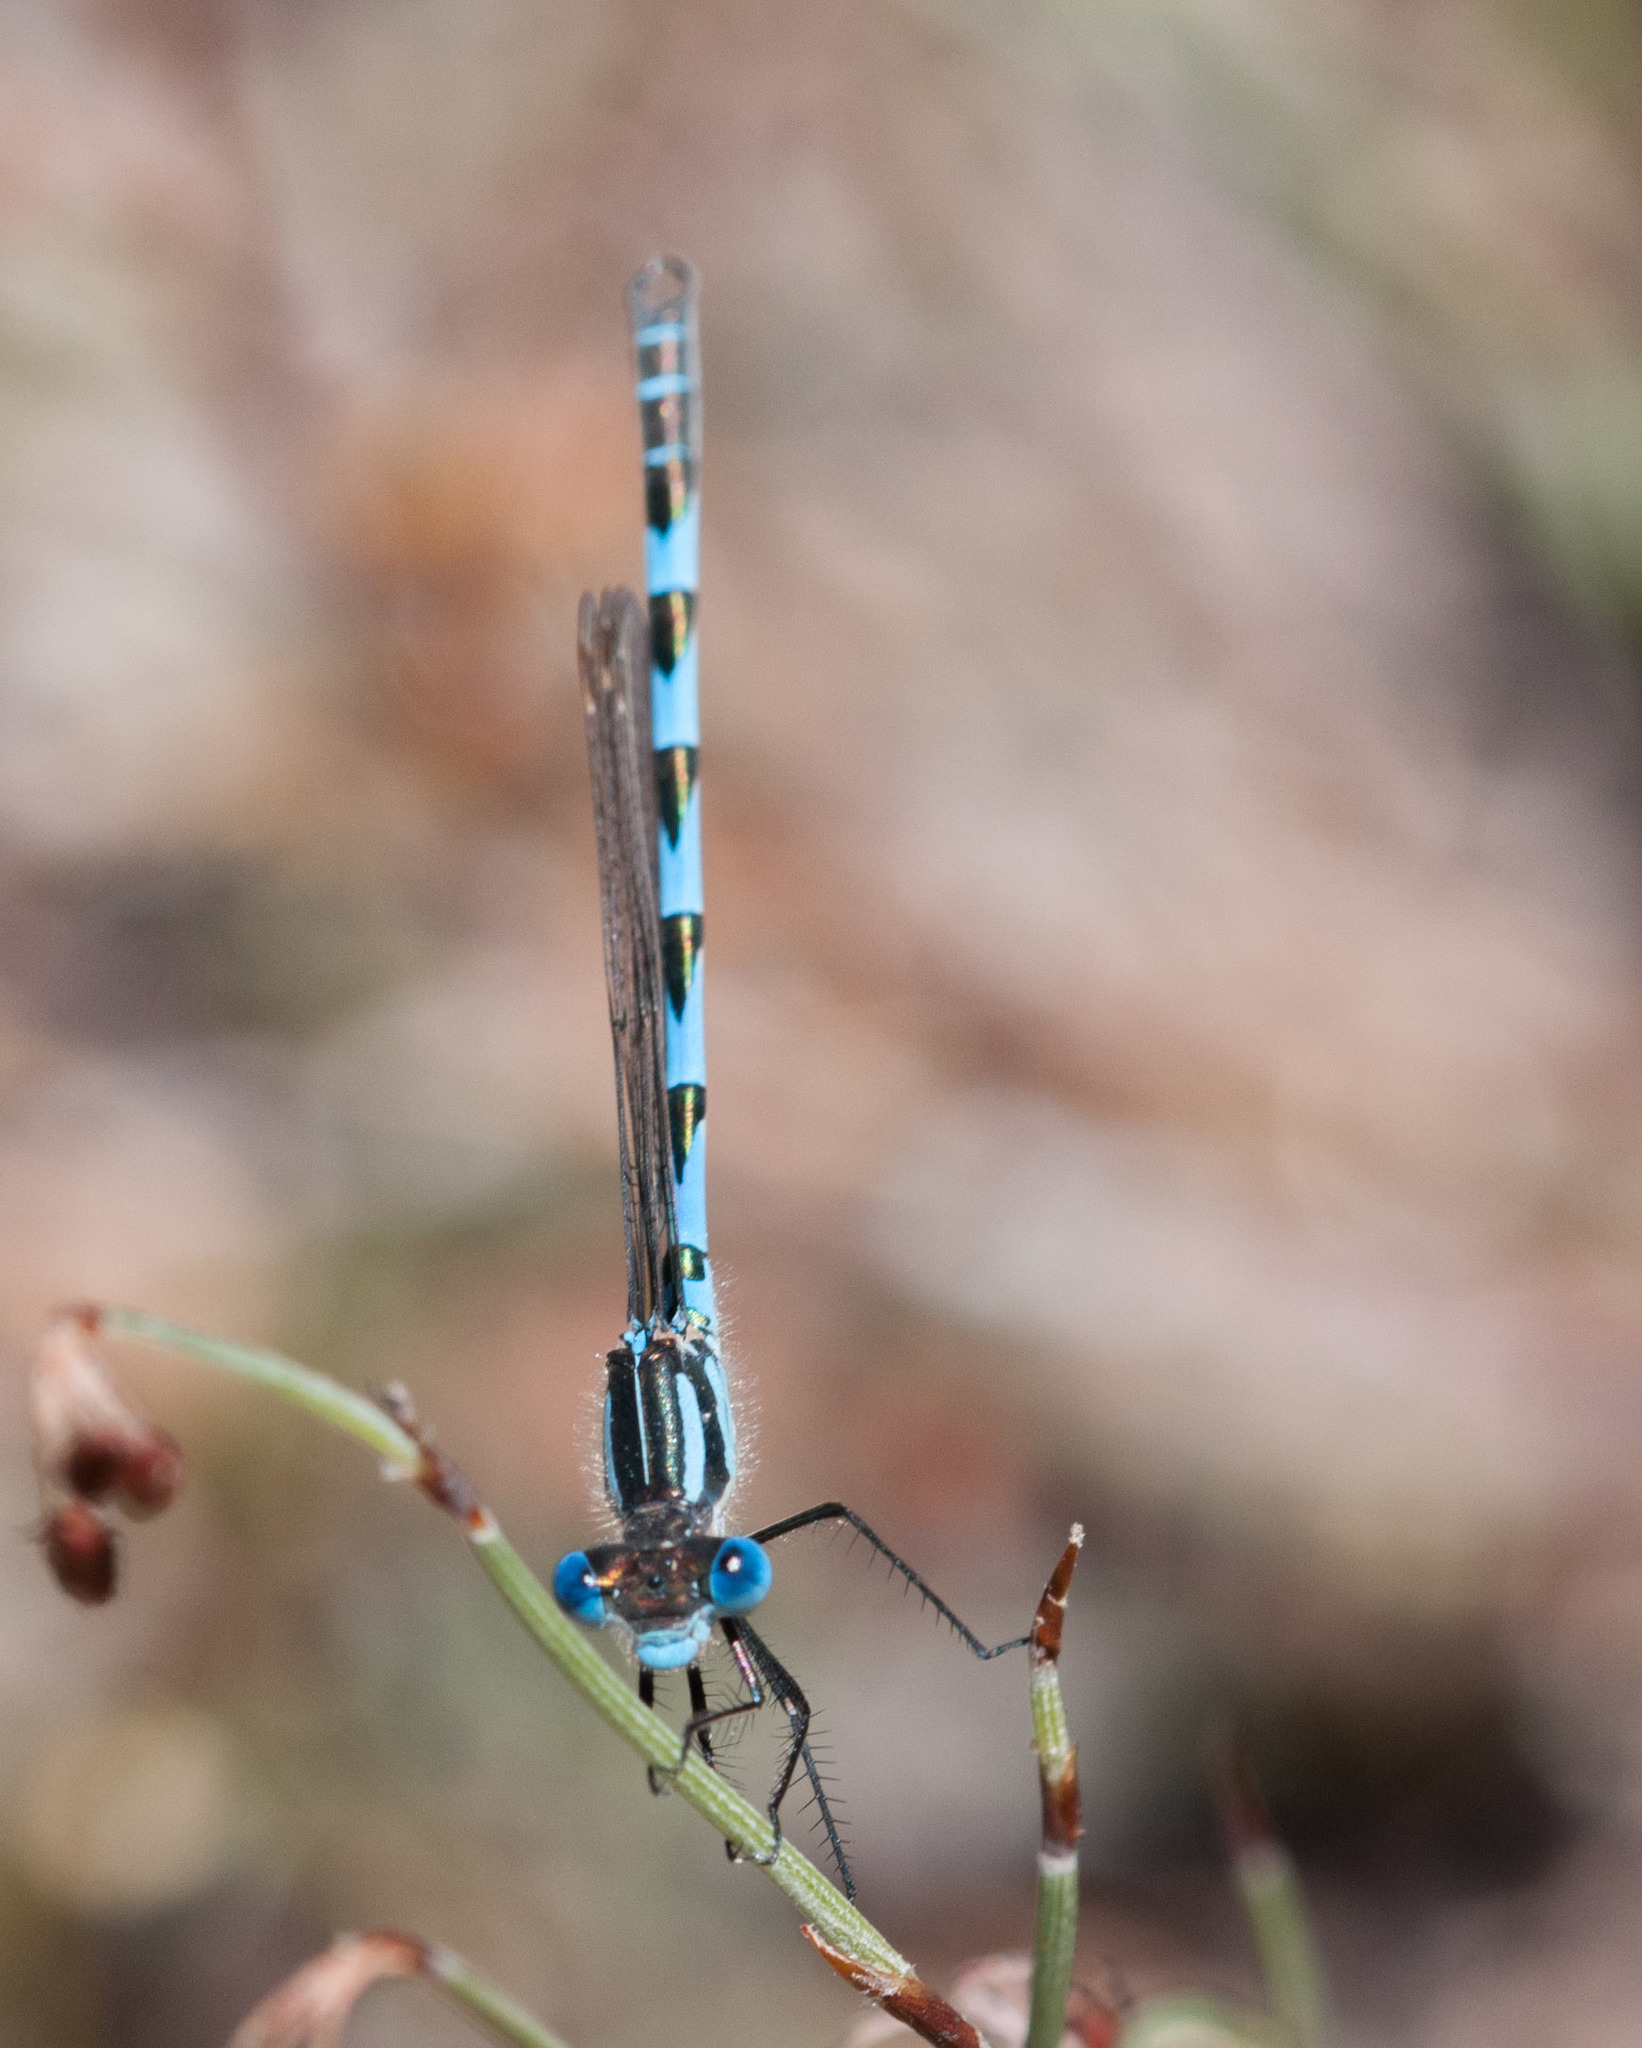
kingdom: Animalia
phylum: Arthropoda
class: Insecta
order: Odonata
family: Lestidae
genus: Austrolestes
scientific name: Austrolestes annulosus
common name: Blue ringtail
